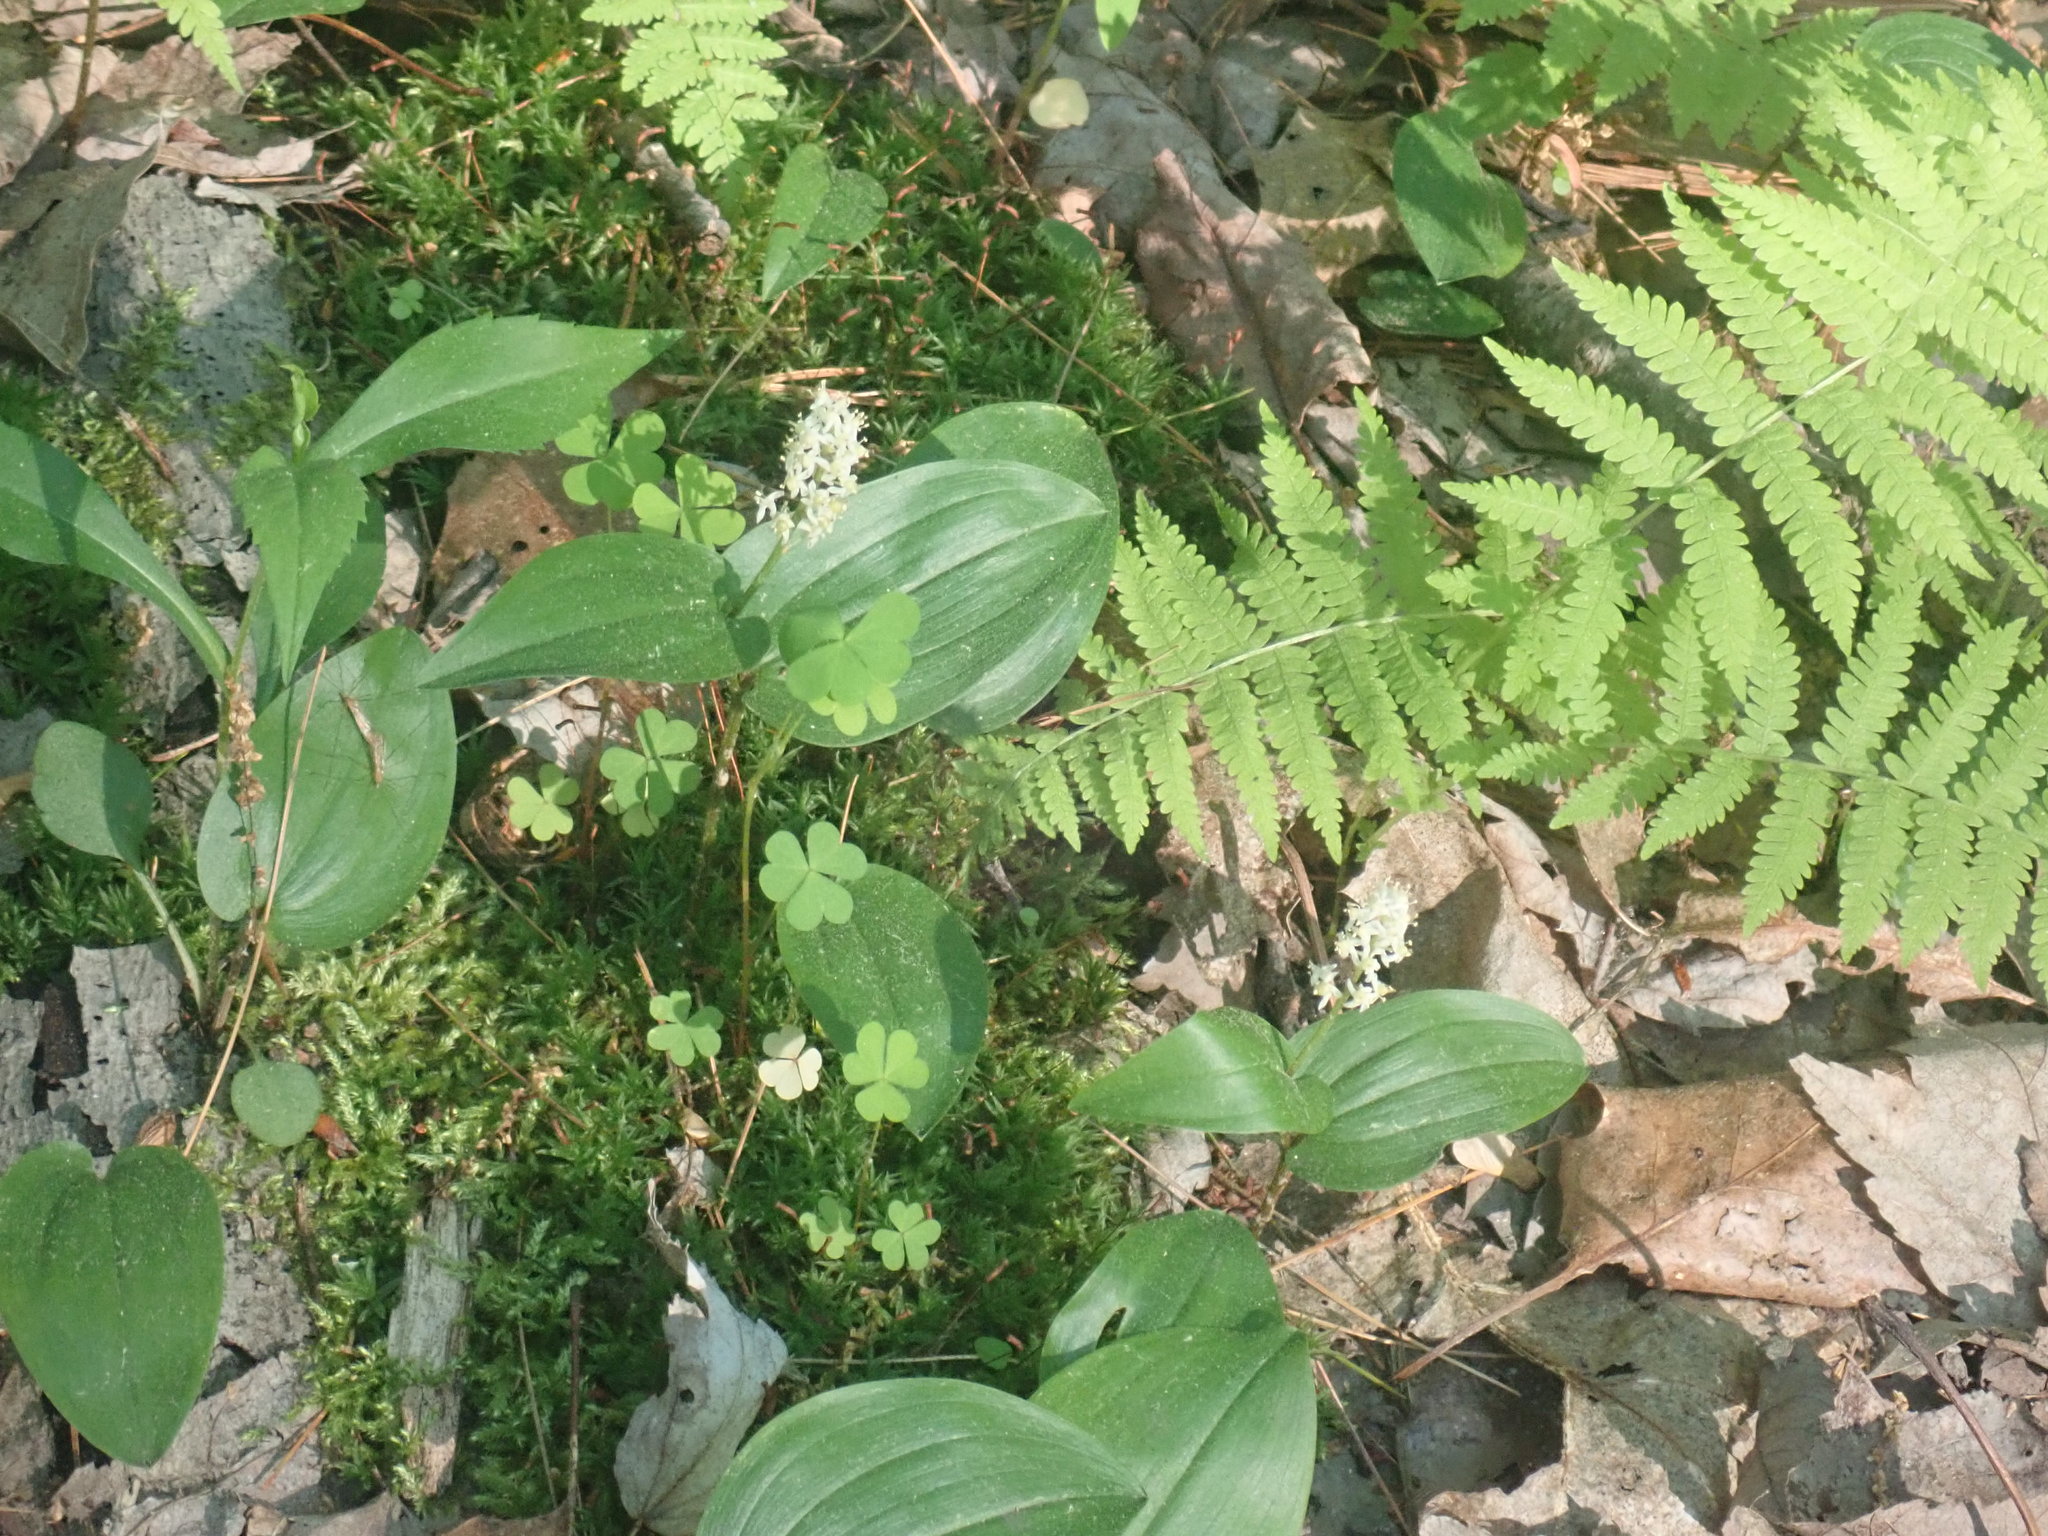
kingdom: Plantae
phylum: Tracheophyta
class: Liliopsida
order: Asparagales
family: Asparagaceae
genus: Maianthemum
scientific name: Maianthemum canadense
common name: False lily-of-the-valley
